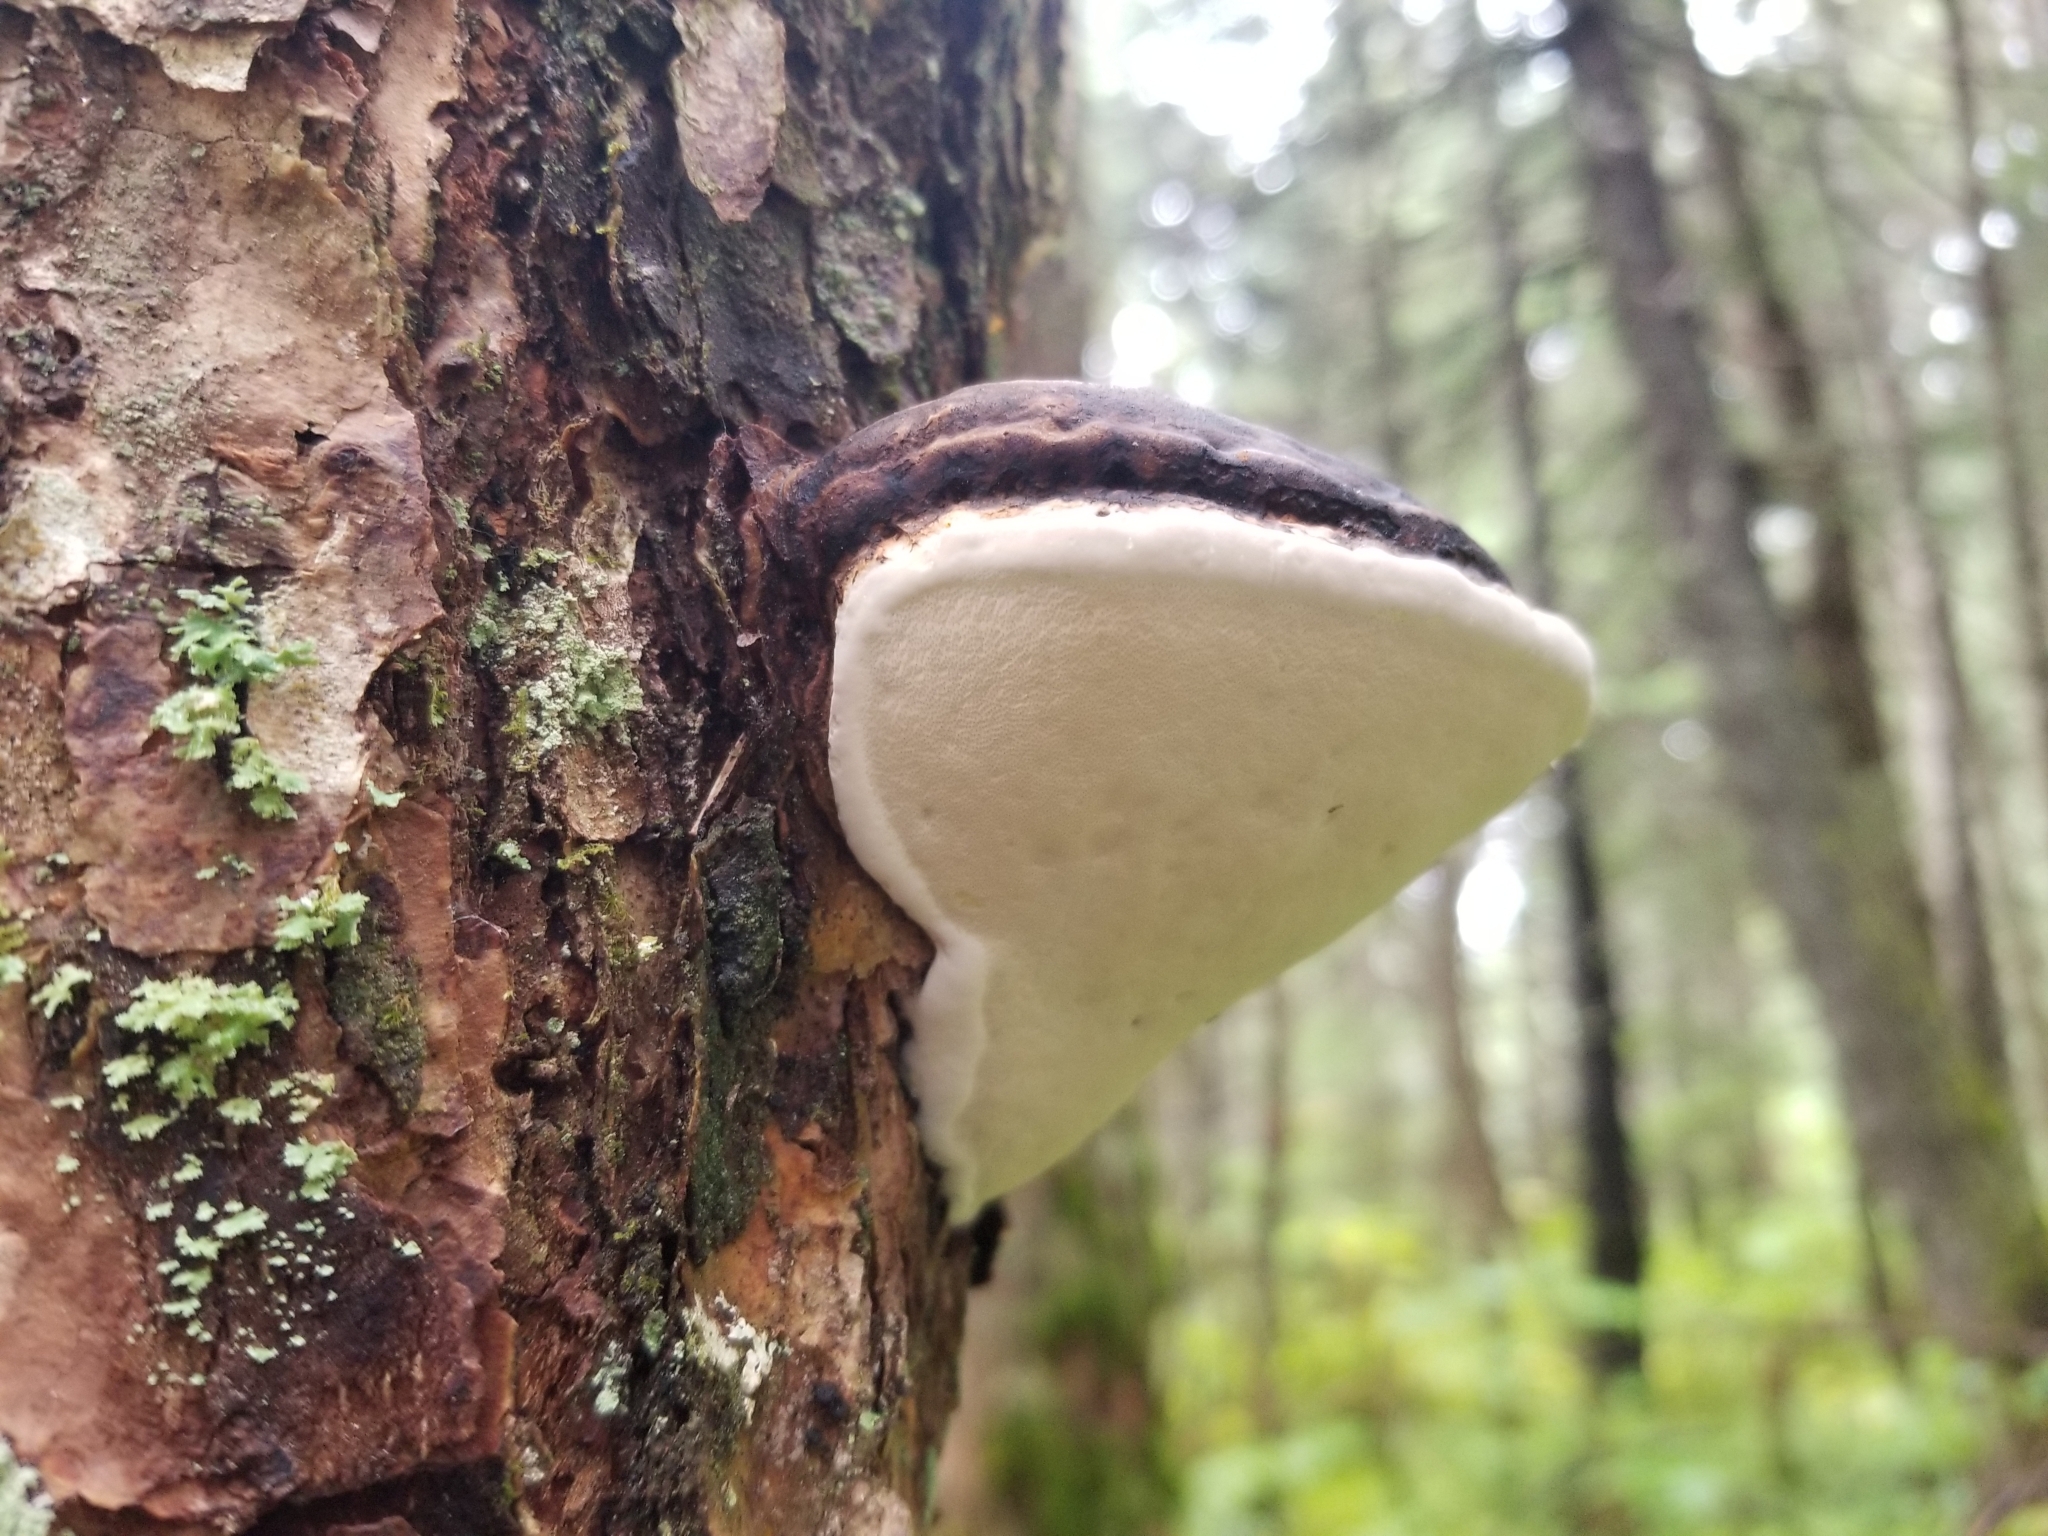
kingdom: Fungi
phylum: Basidiomycota
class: Agaricomycetes
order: Polyporales
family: Fomitopsidaceae
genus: Fomitopsis
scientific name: Fomitopsis ochracea
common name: American brown fomitopsis
